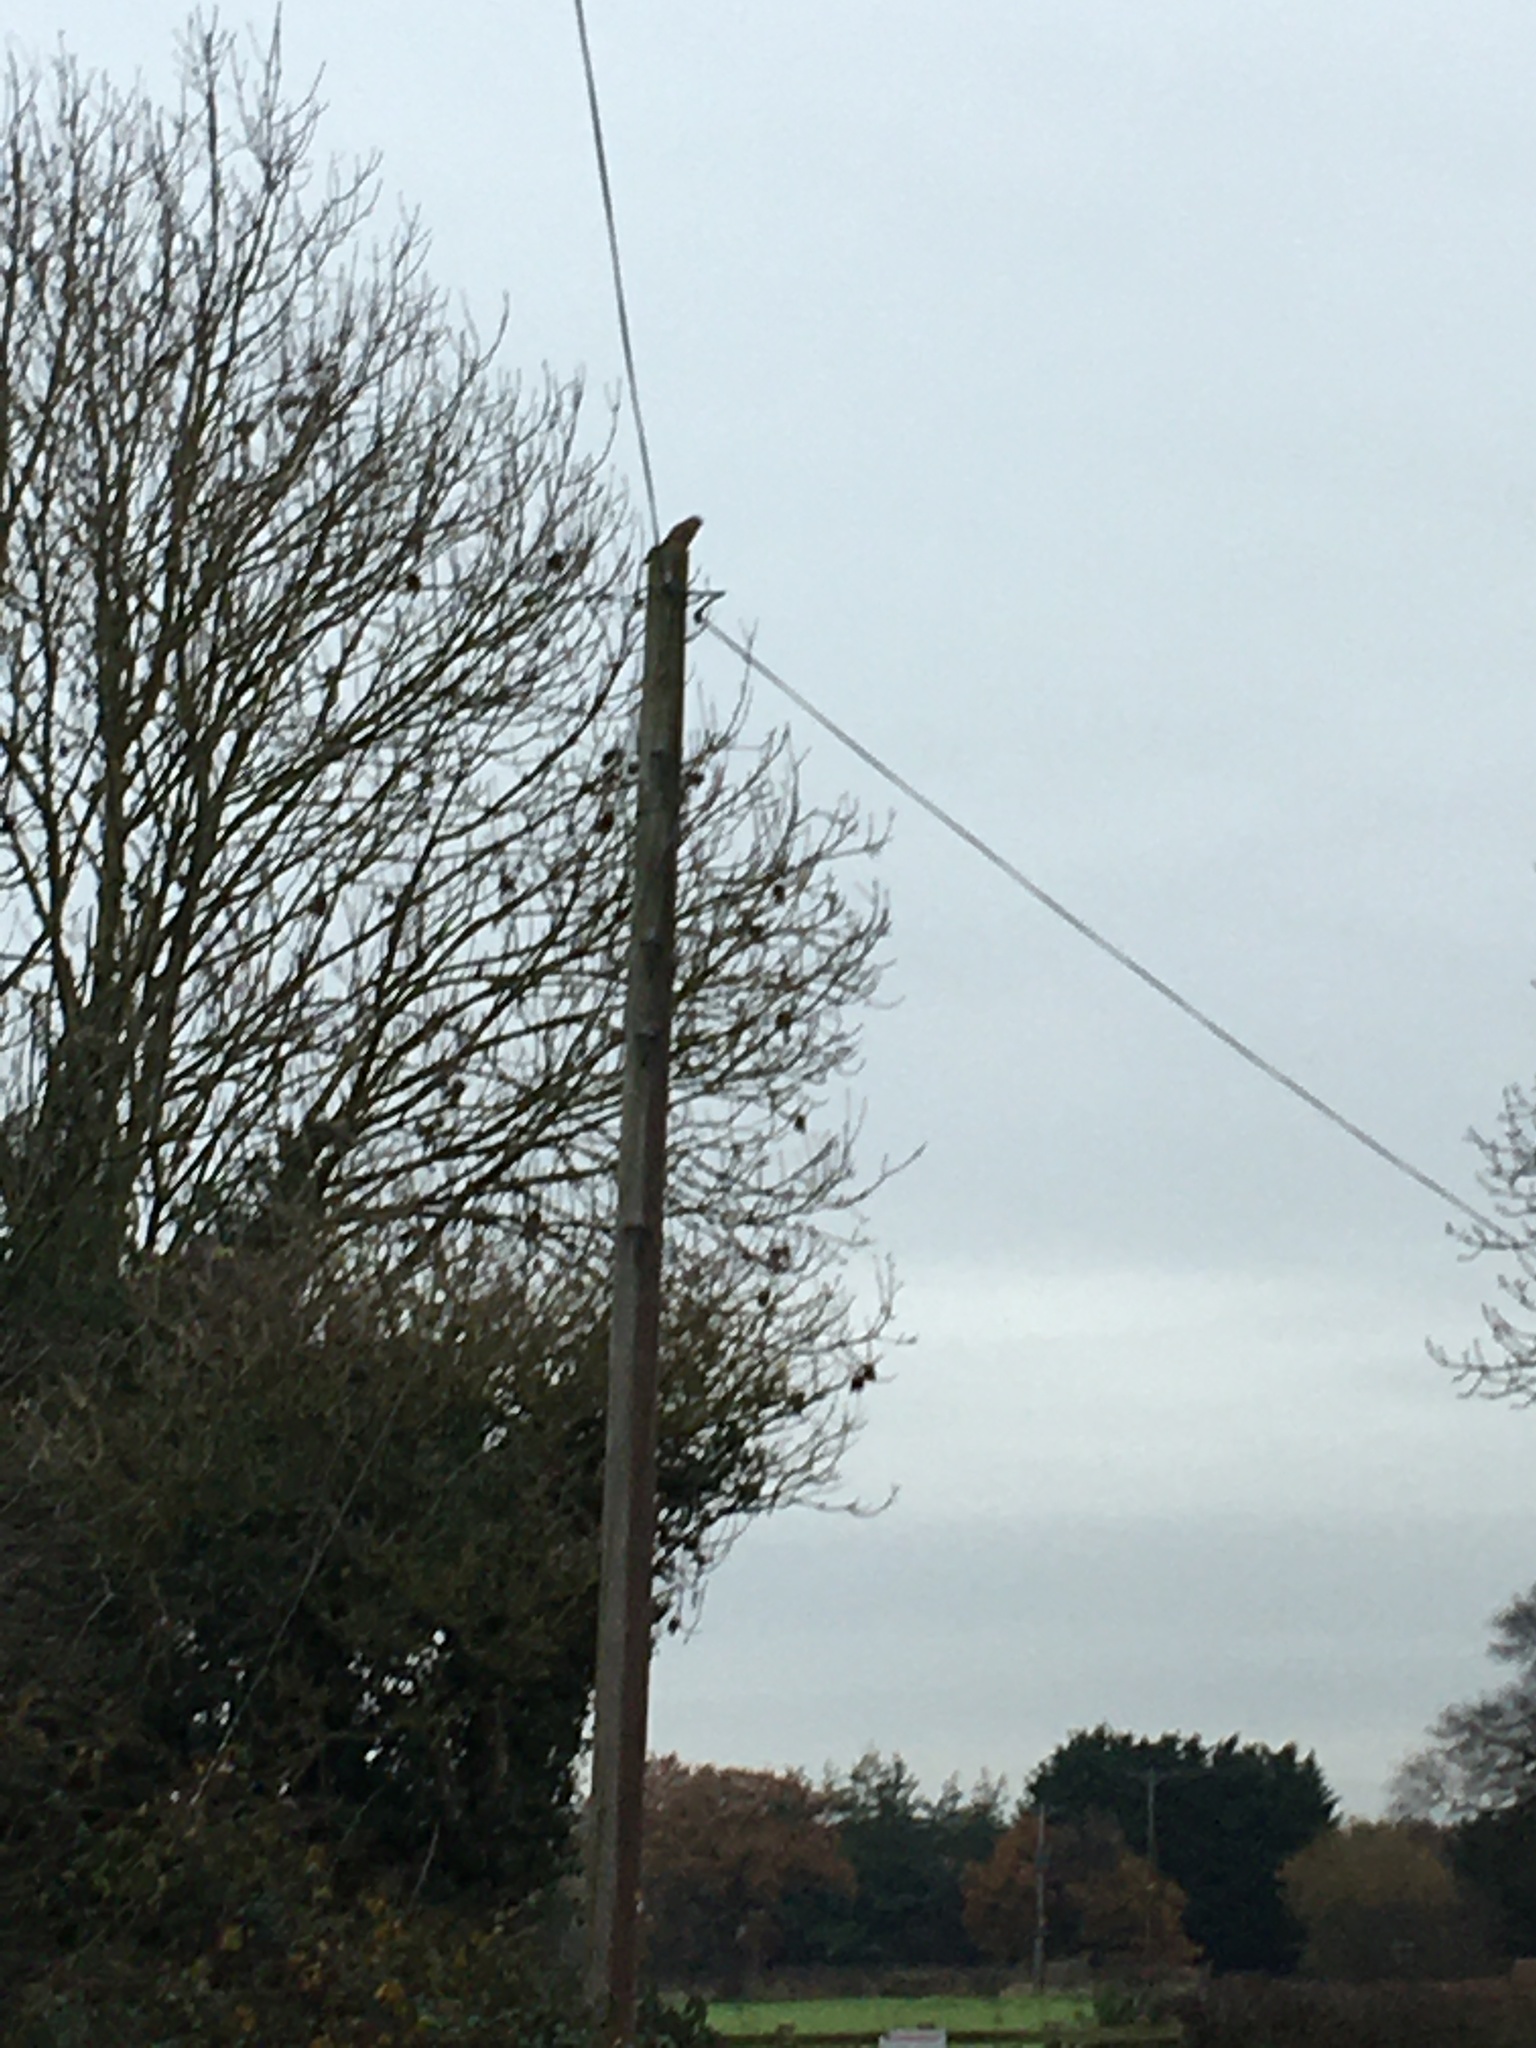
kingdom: Animalia
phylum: Chordata
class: Aves
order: Falconiformes
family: Falconidae
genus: Falco
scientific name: Falco tinnunculus
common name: Common kestrel
